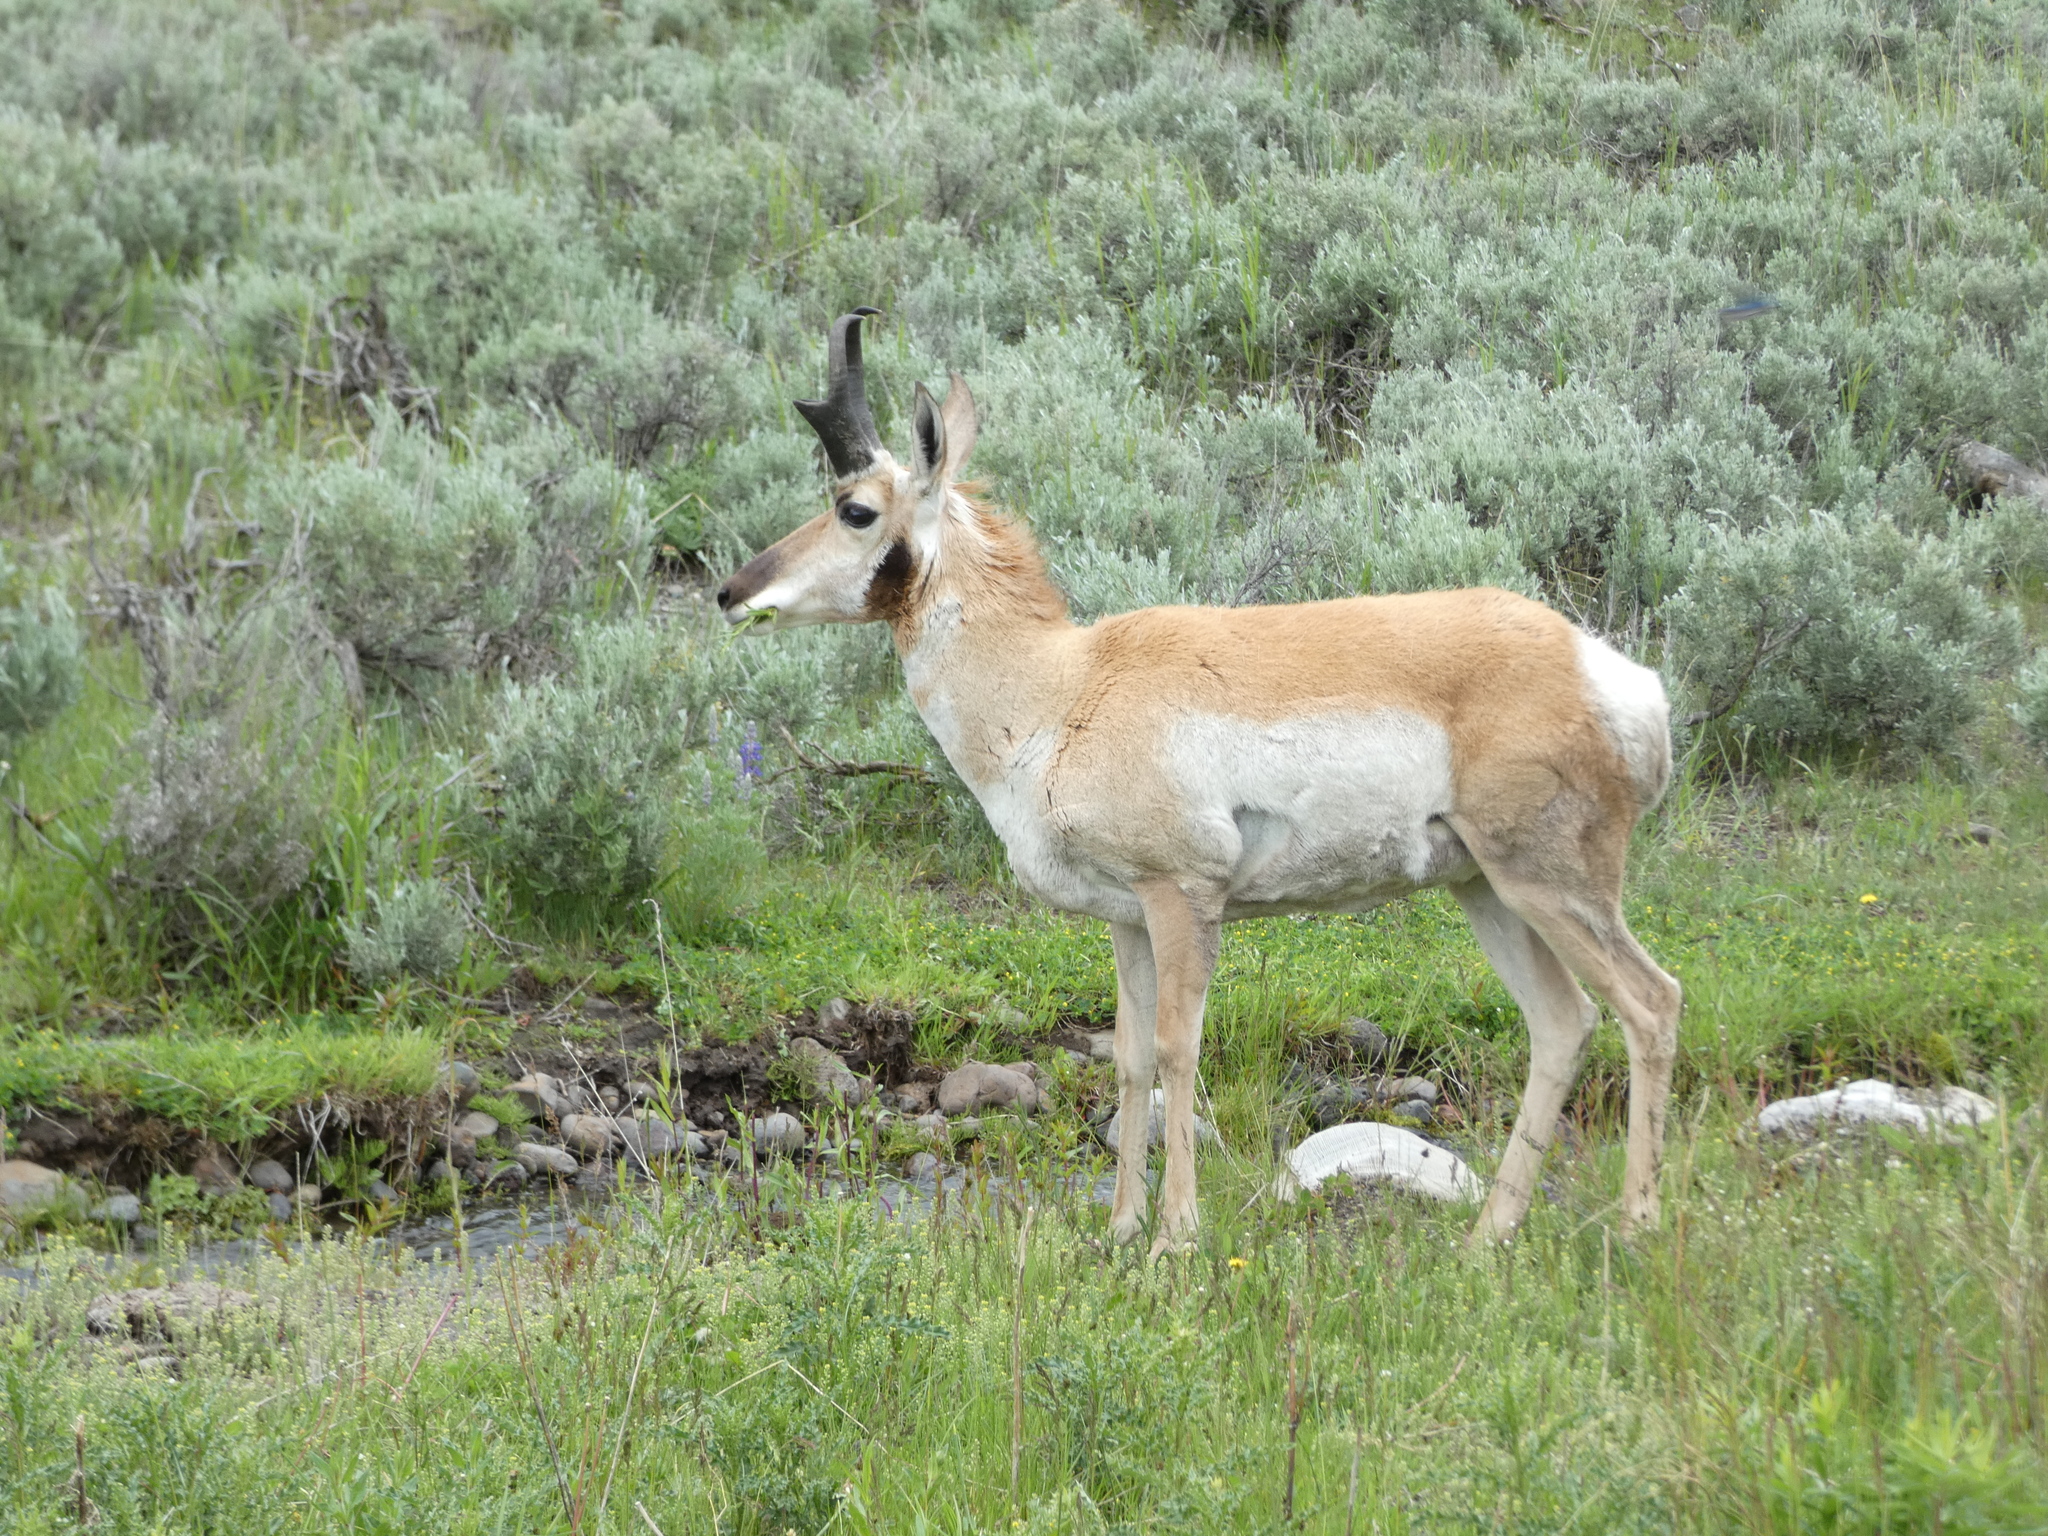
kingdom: Animalia
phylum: Chordata
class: Mammalia
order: Artiodactyla
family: Antilocapridae
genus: Antilocapra
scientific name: Antilocapra americana
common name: Pronghorn
